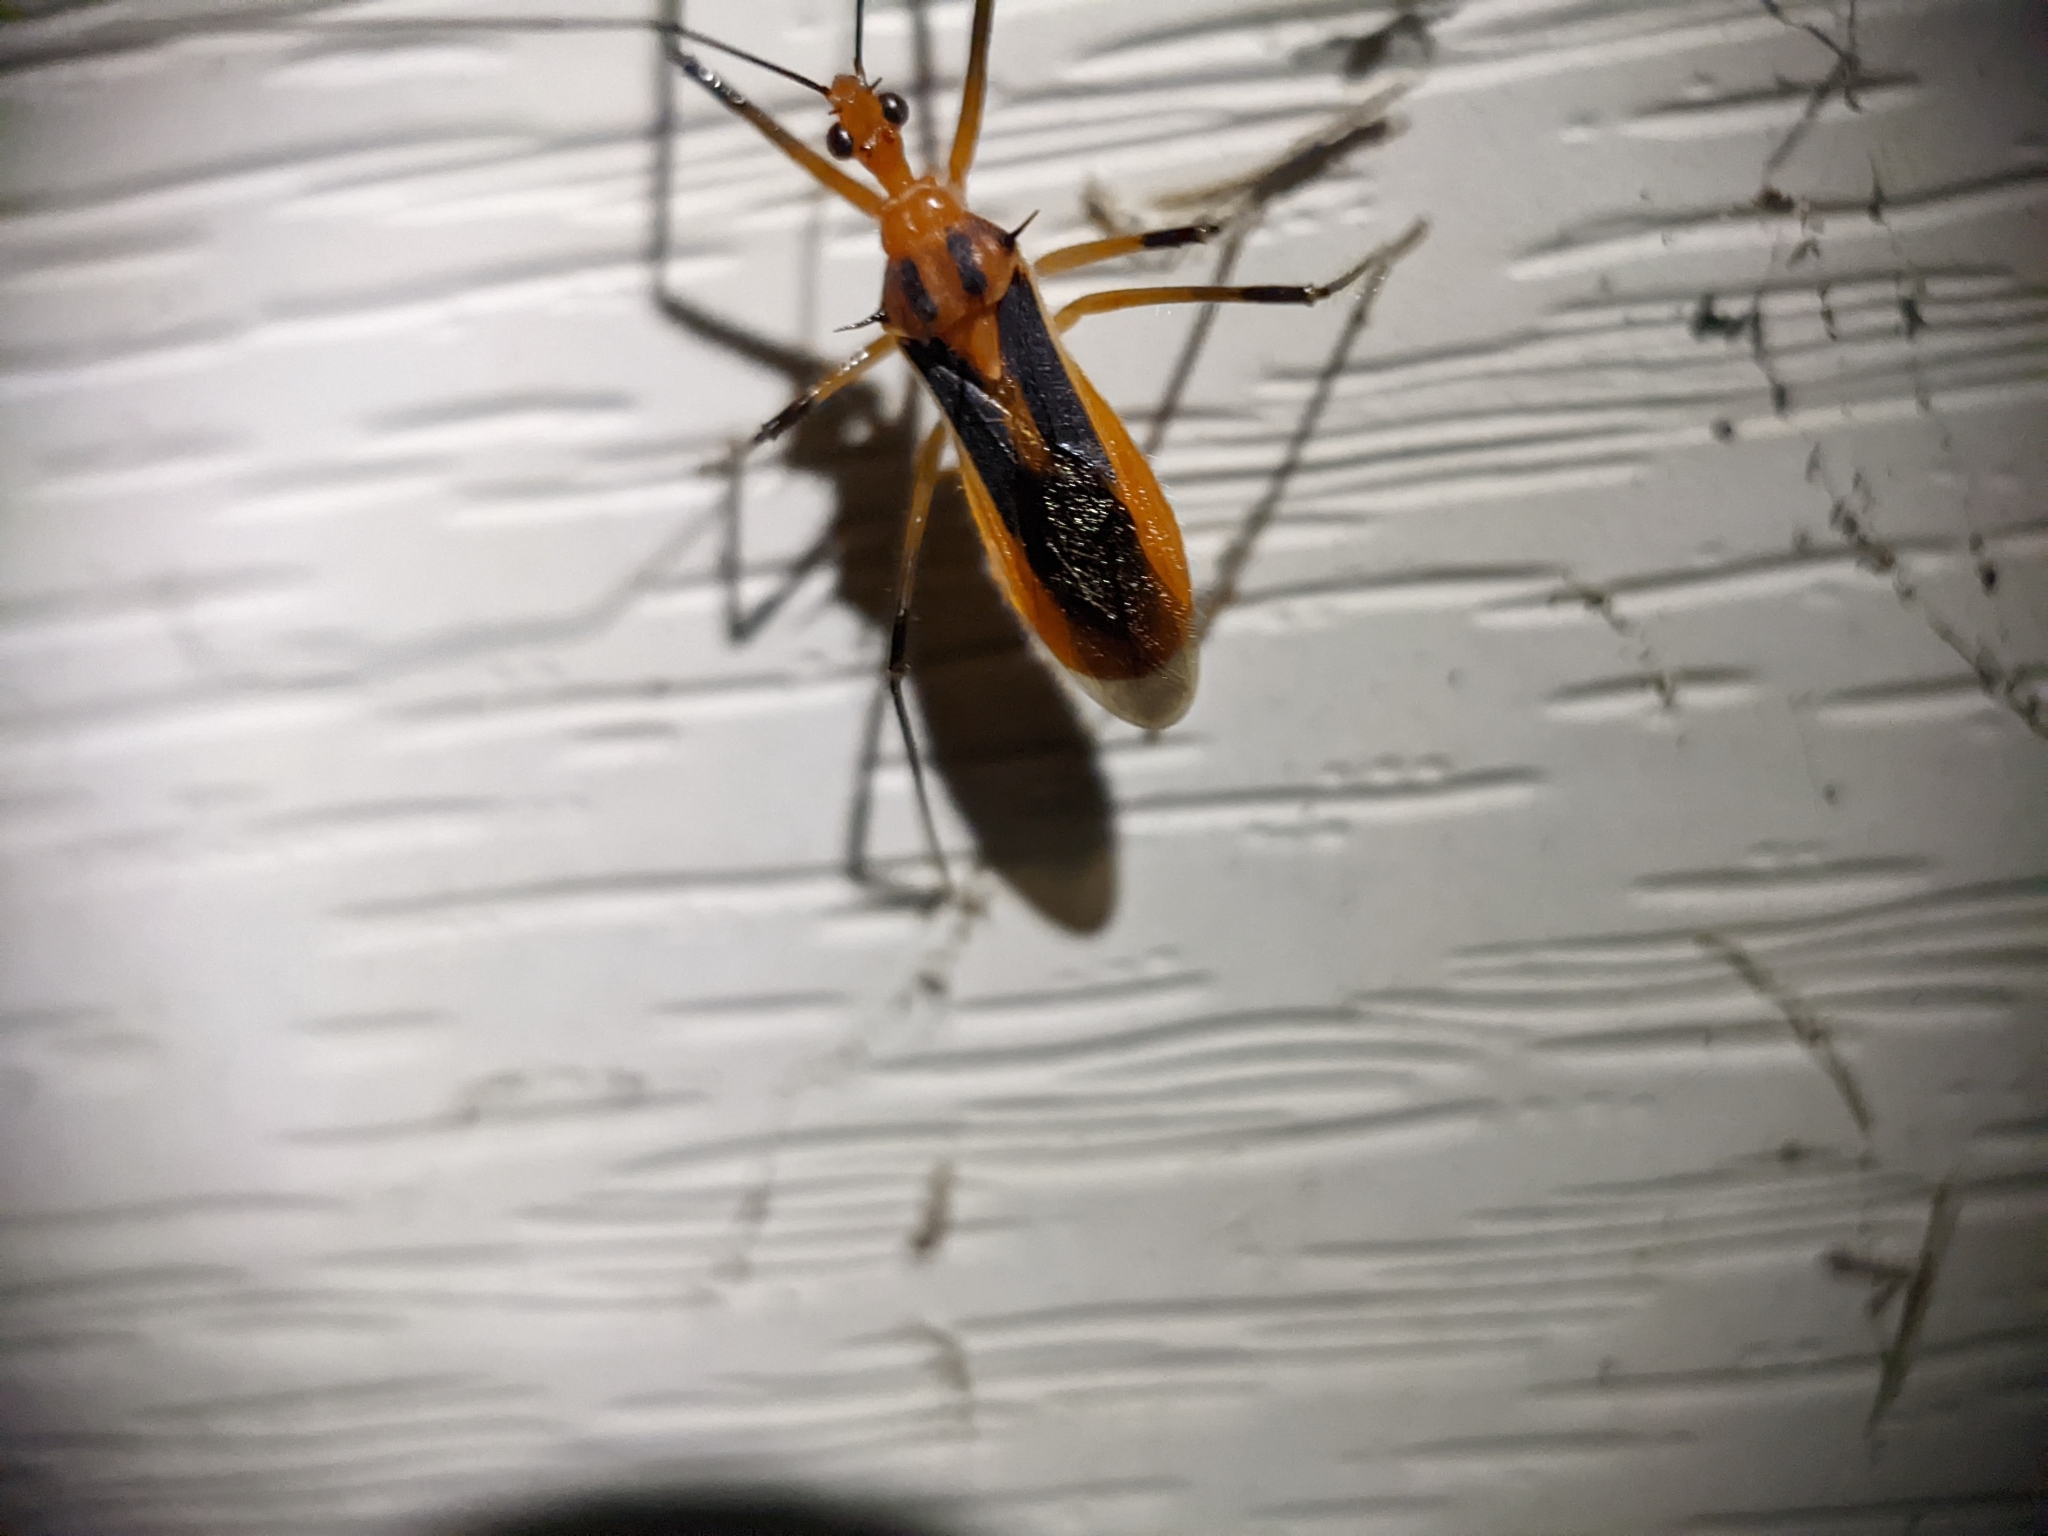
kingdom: Animalia
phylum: Arthropoda
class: Insecta
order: Hemiptera
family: Reduviidae
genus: Repipta
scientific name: Repipta taurus
